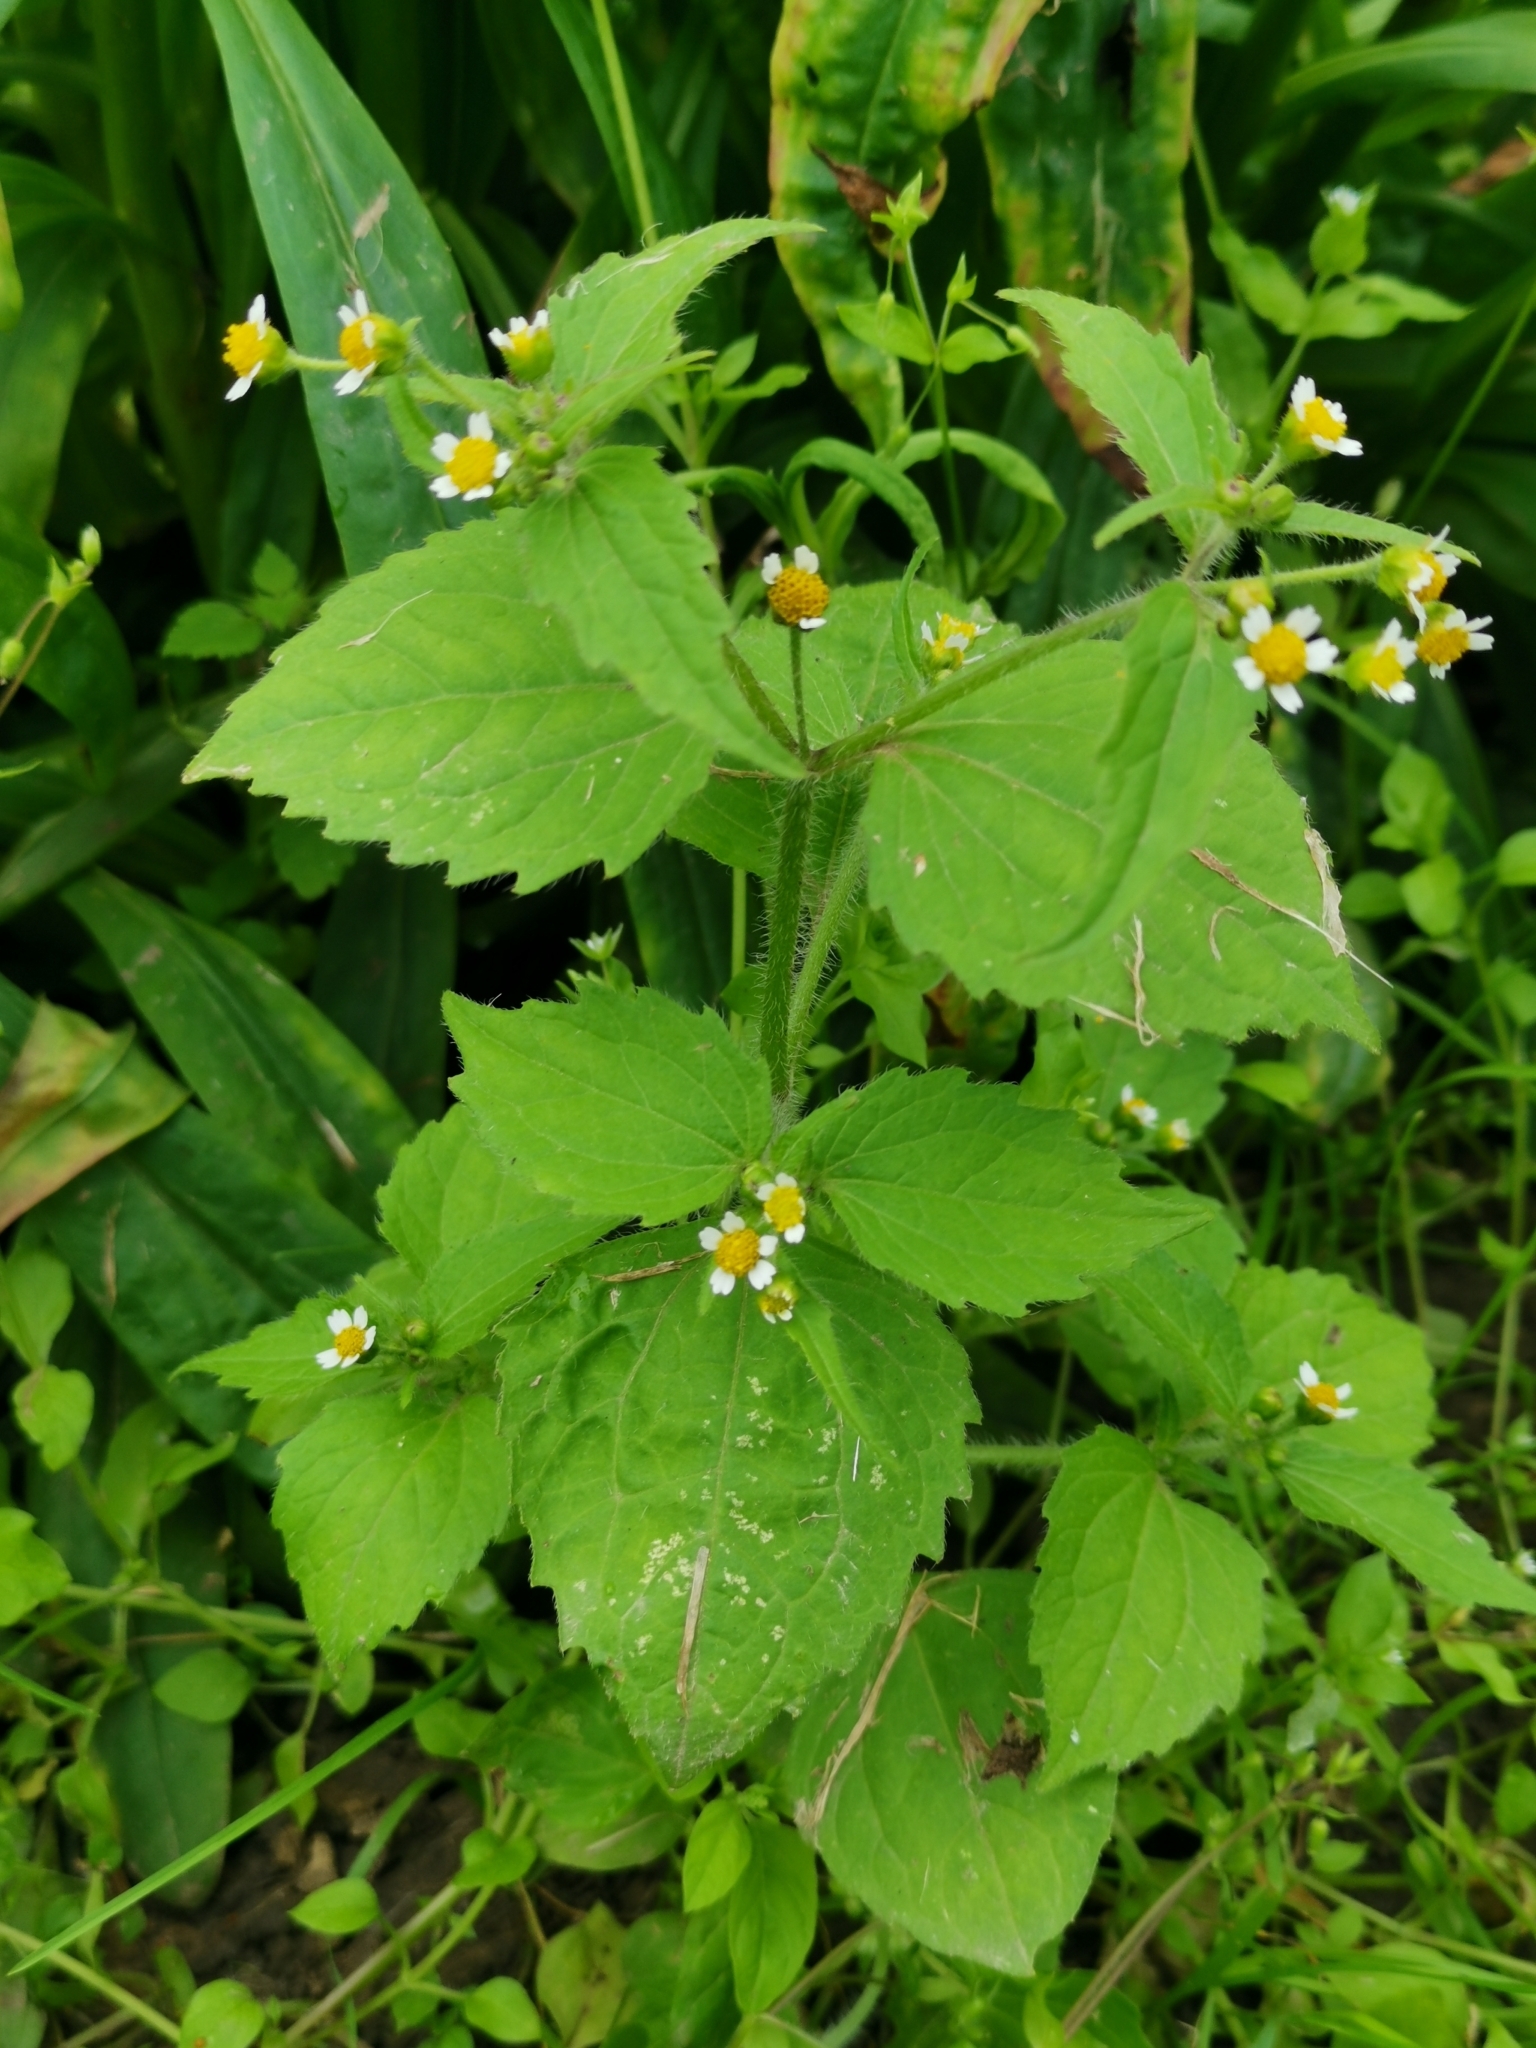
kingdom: Plantae
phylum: Tracheophyta
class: Magnoliopsida
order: Asterales
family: Asteraceae
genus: Galinsoga
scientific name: Galinsoga quadriradiata
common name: Shaggy soldier
